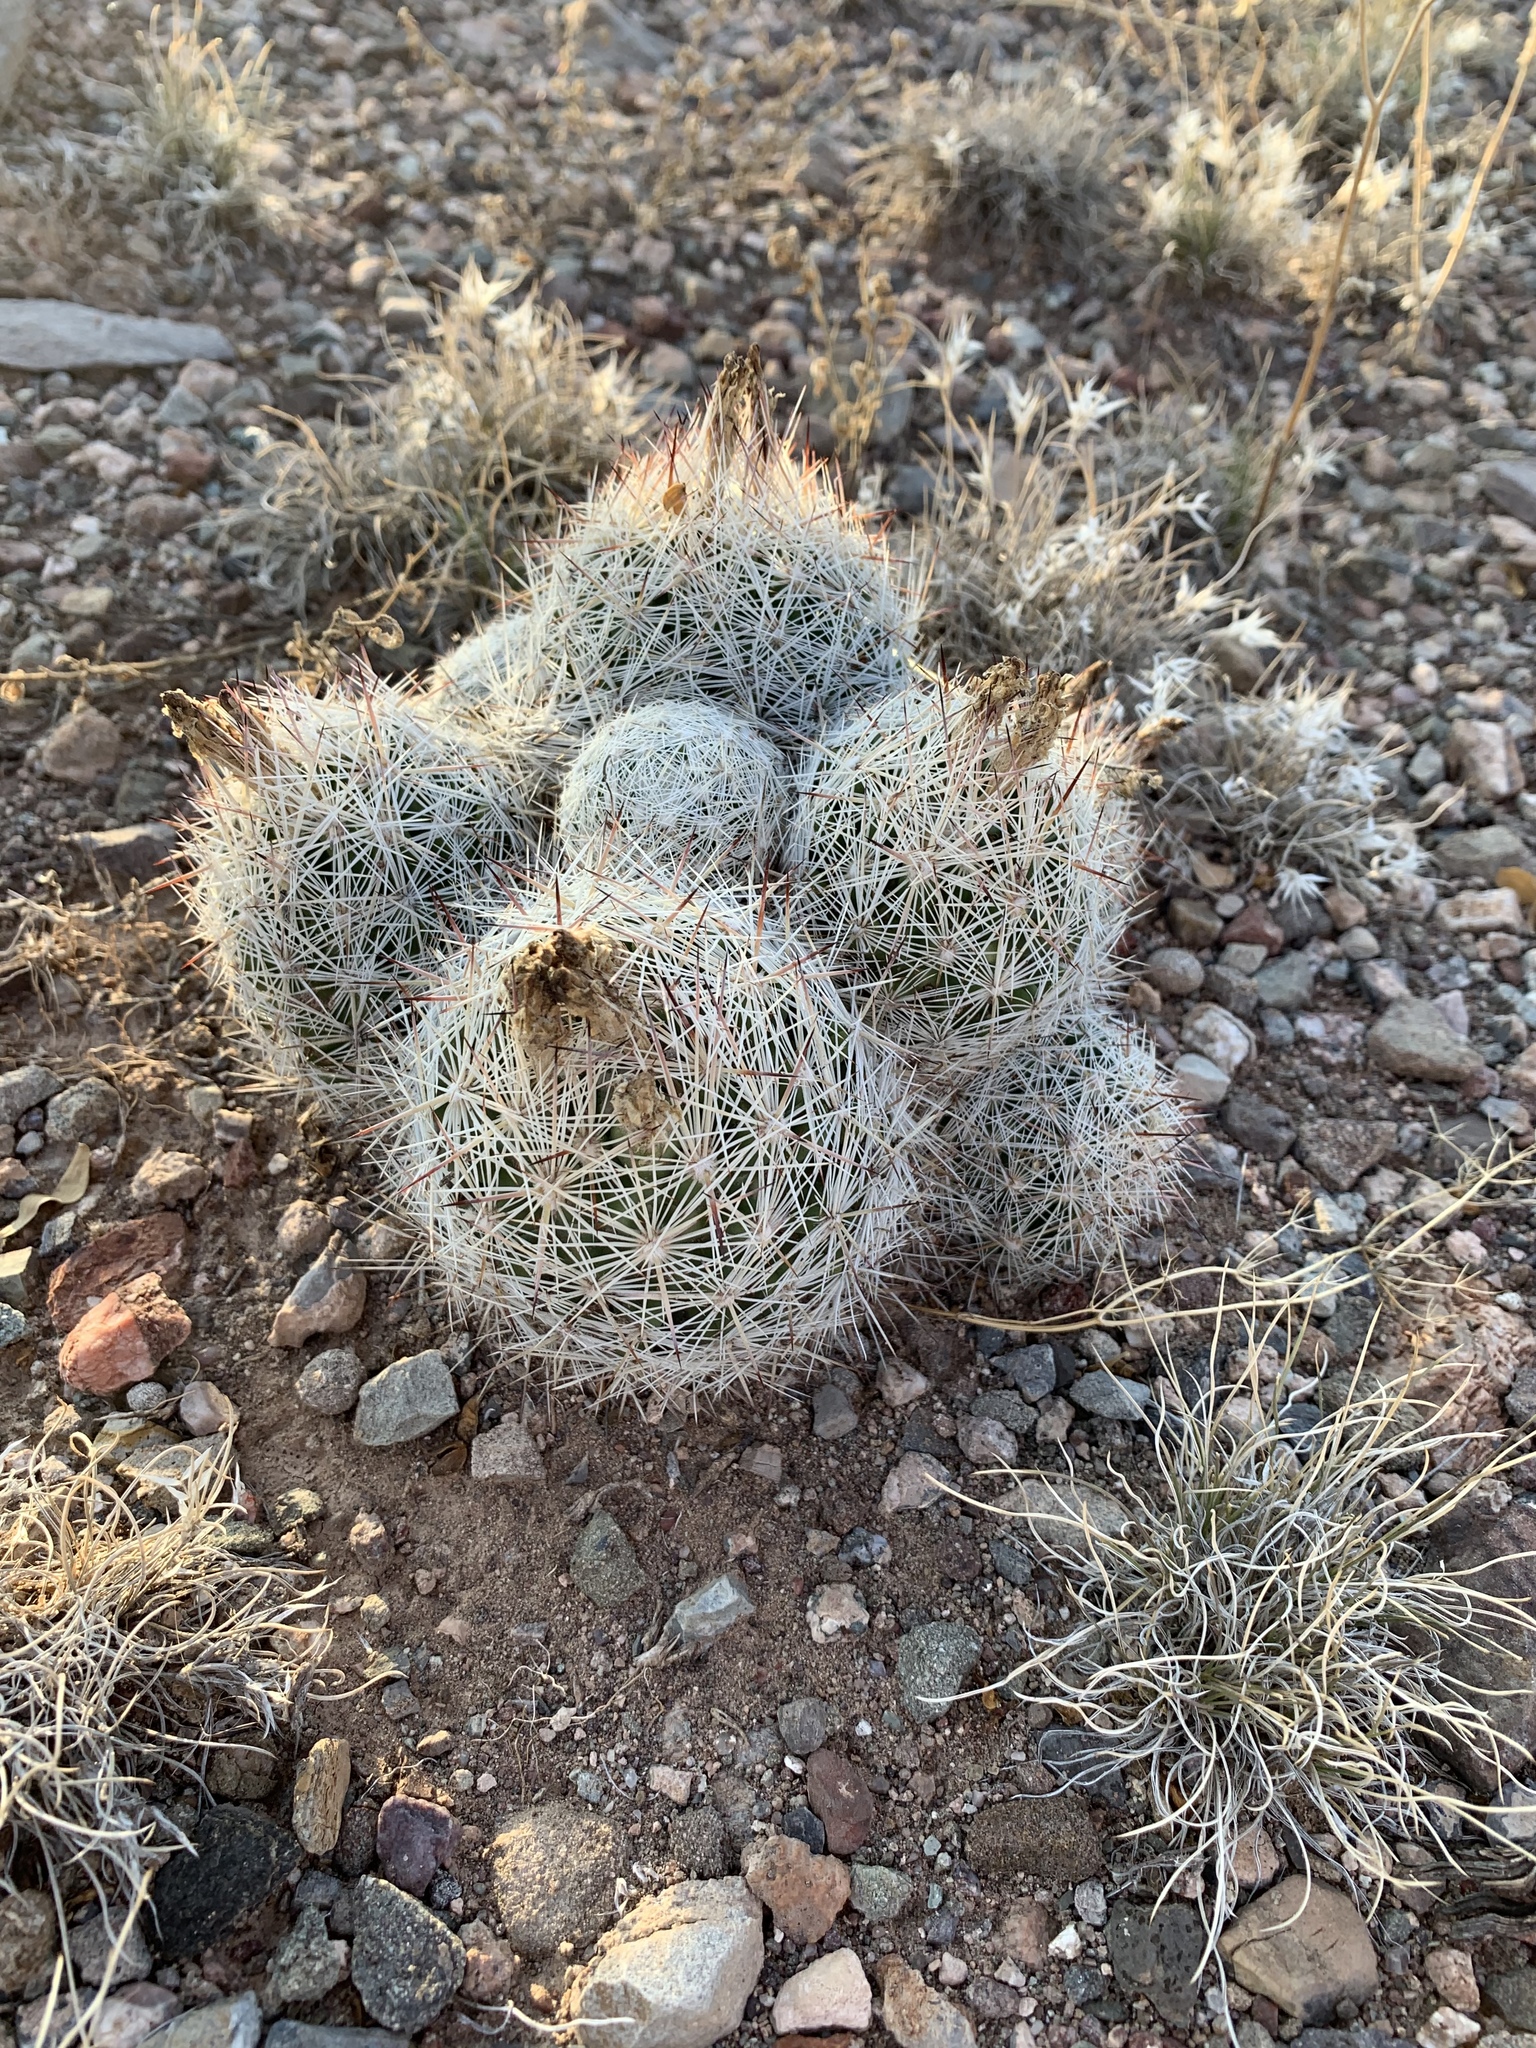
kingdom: Plantae
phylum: Tracheophyta
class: Magnoliopsida
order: Caryophyllales
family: Cactaceae
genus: Pelecyphora
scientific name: Pelecyphora vivipara
